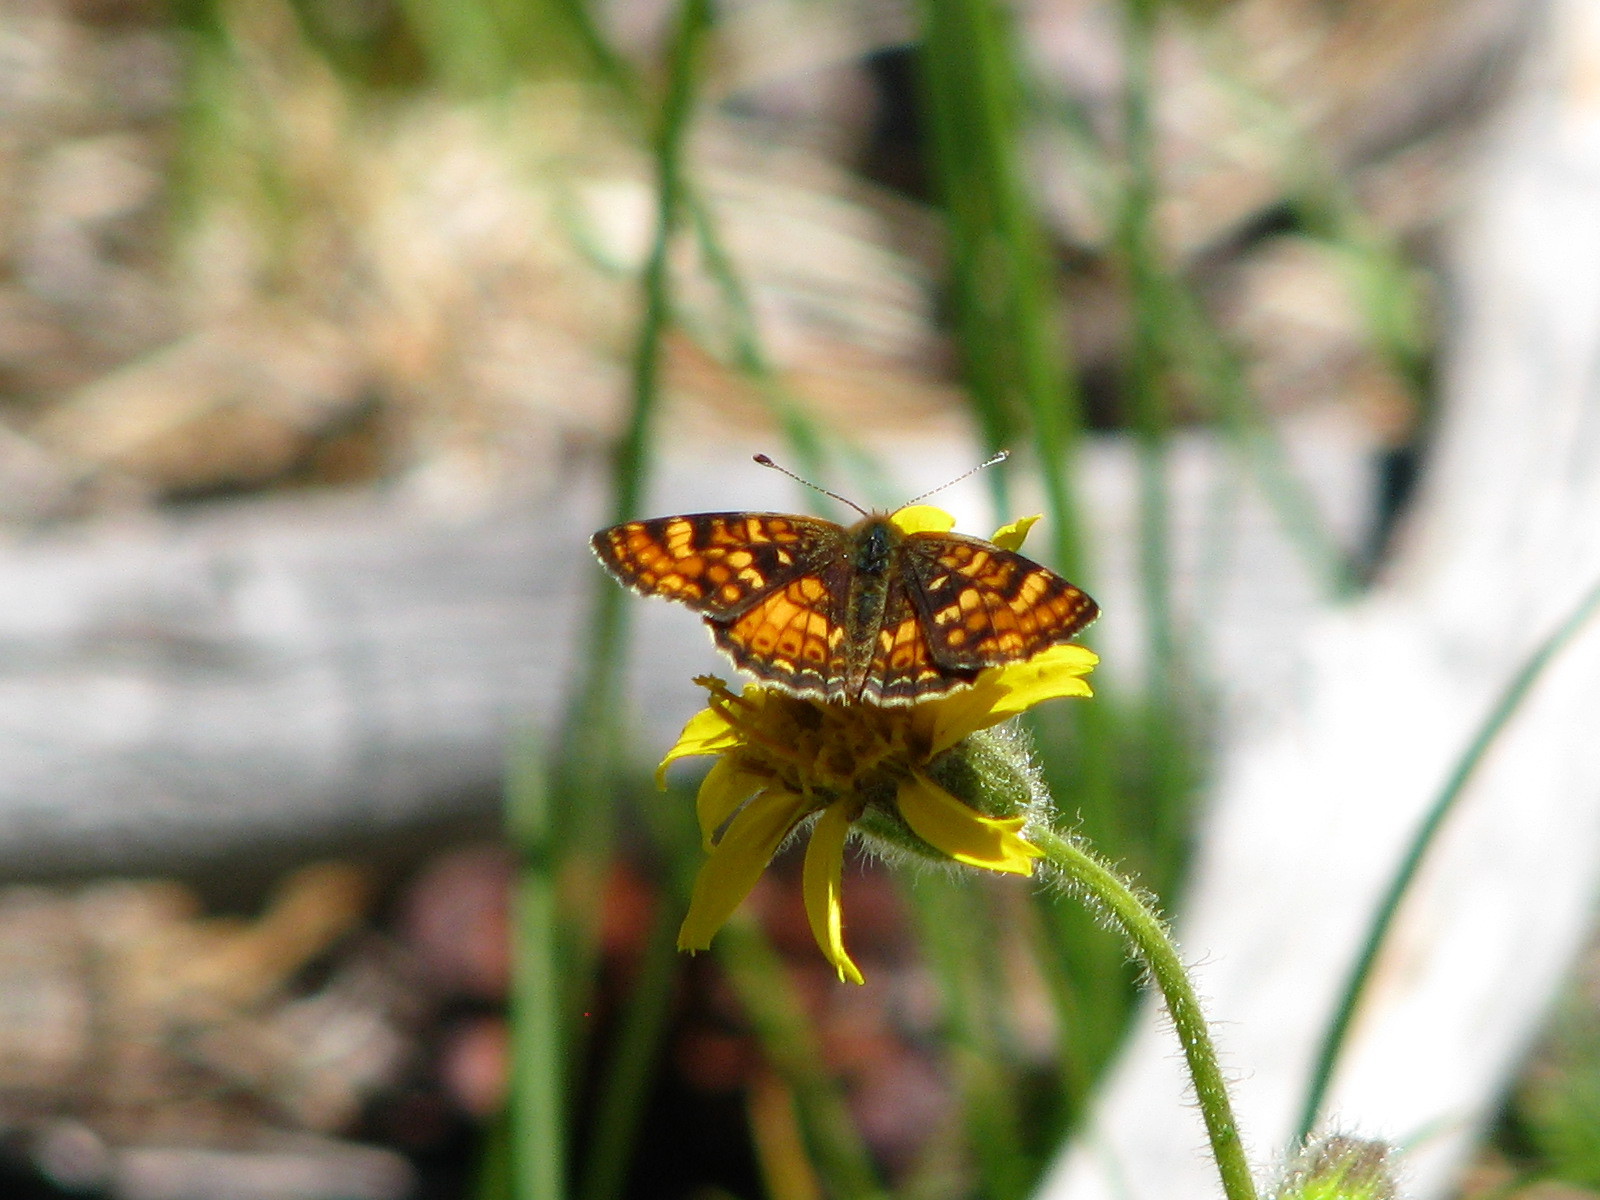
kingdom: Animalia
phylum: Arthropoda
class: Insecta
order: Lepidoptera
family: Nymphalidae
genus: Phyciodes
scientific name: Phyciodes tharos
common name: Pearl crescent
